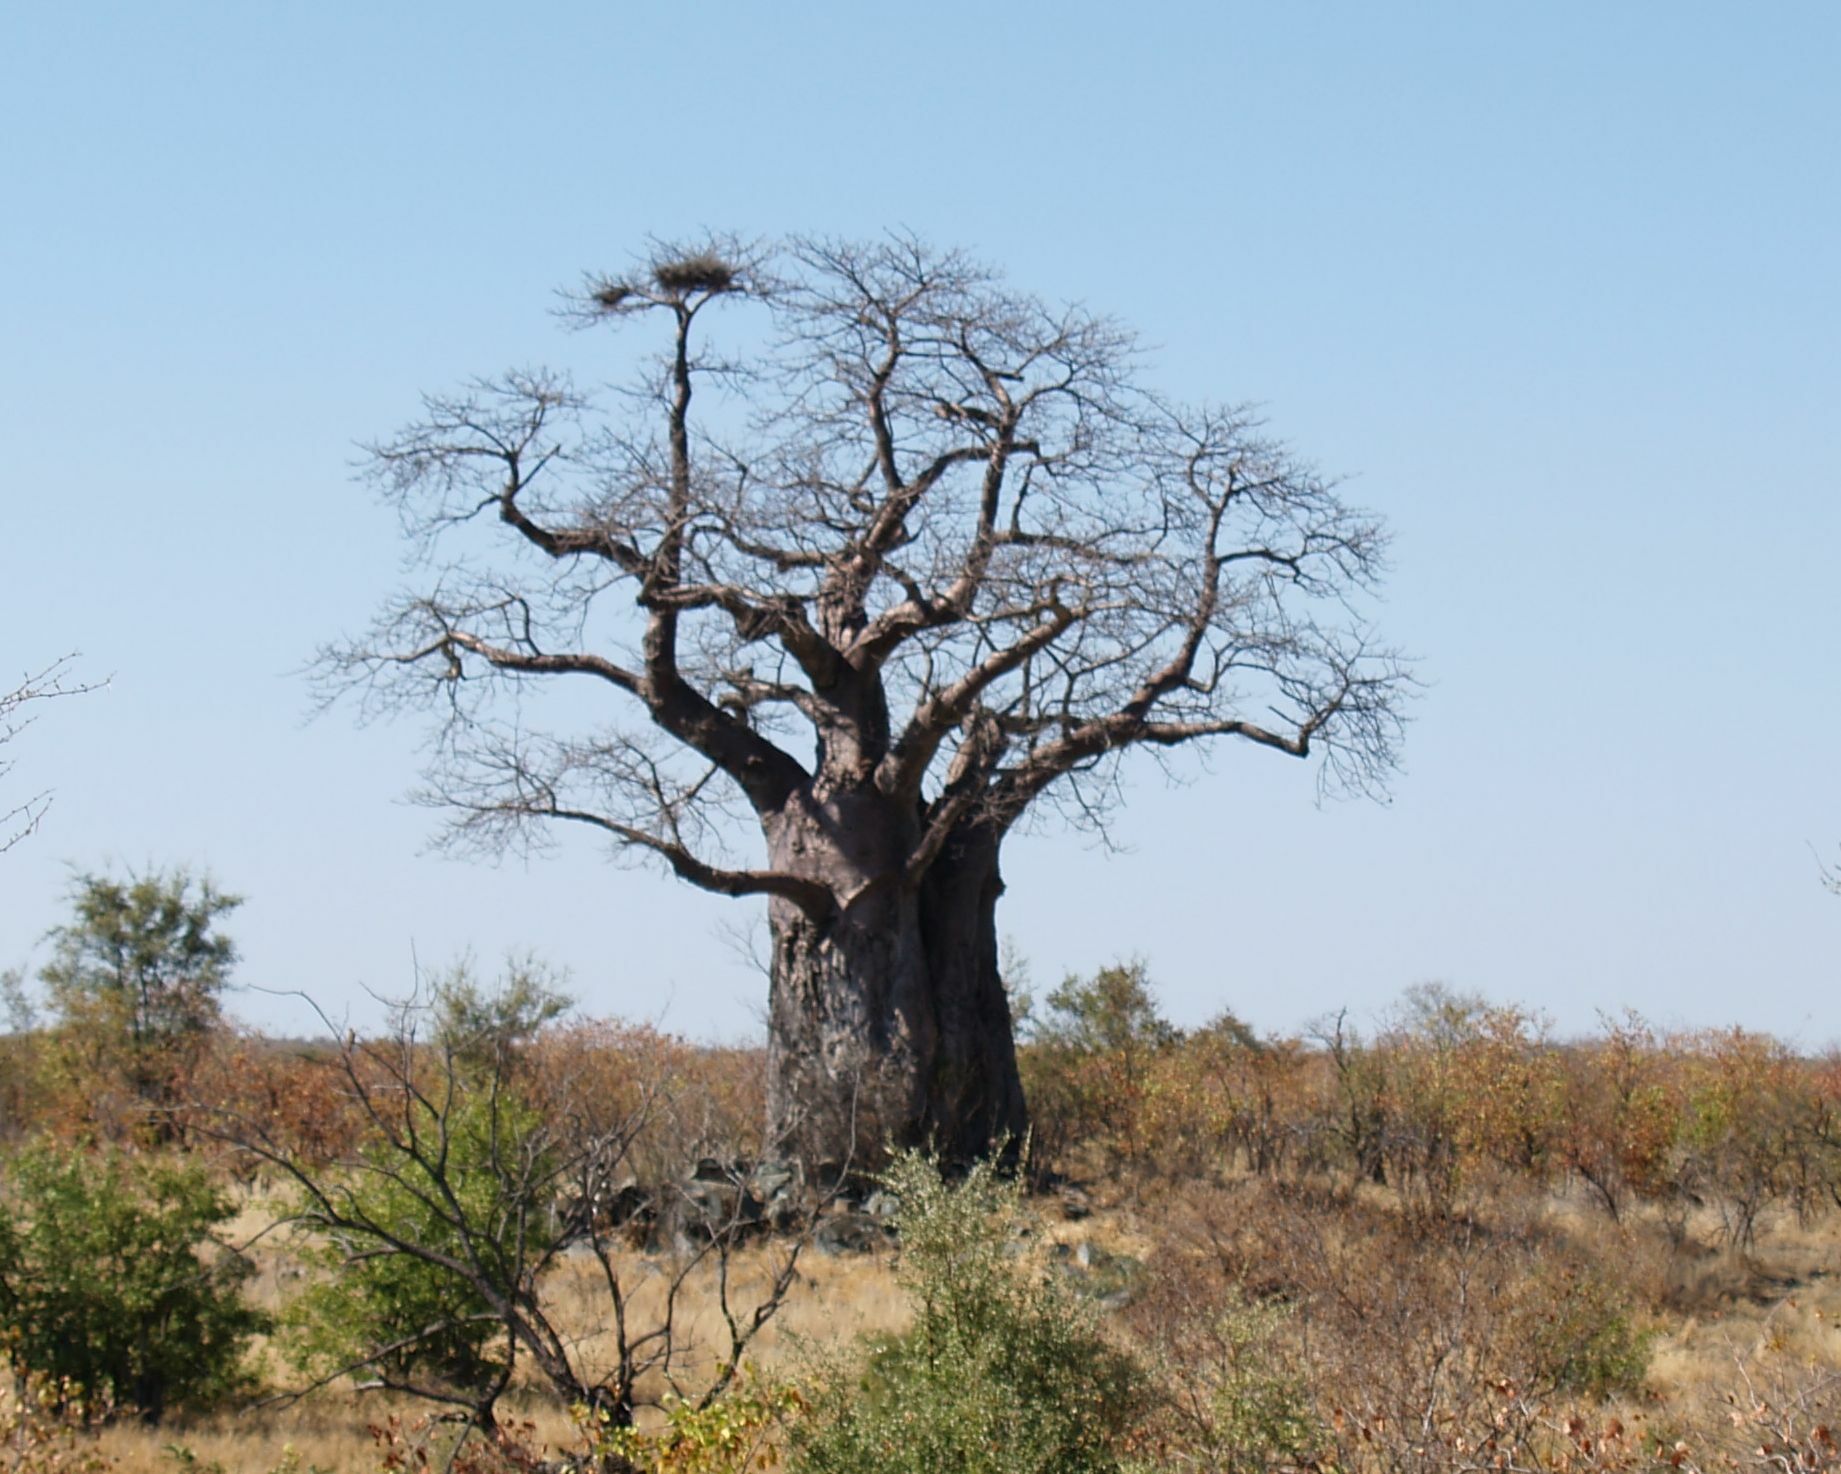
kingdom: Plantae
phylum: Tracheophyta
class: Magnoliopsida
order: Malvales
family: Malvaceae
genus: Adansonia
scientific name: Adansonia digitata
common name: Dead-rat-tree
